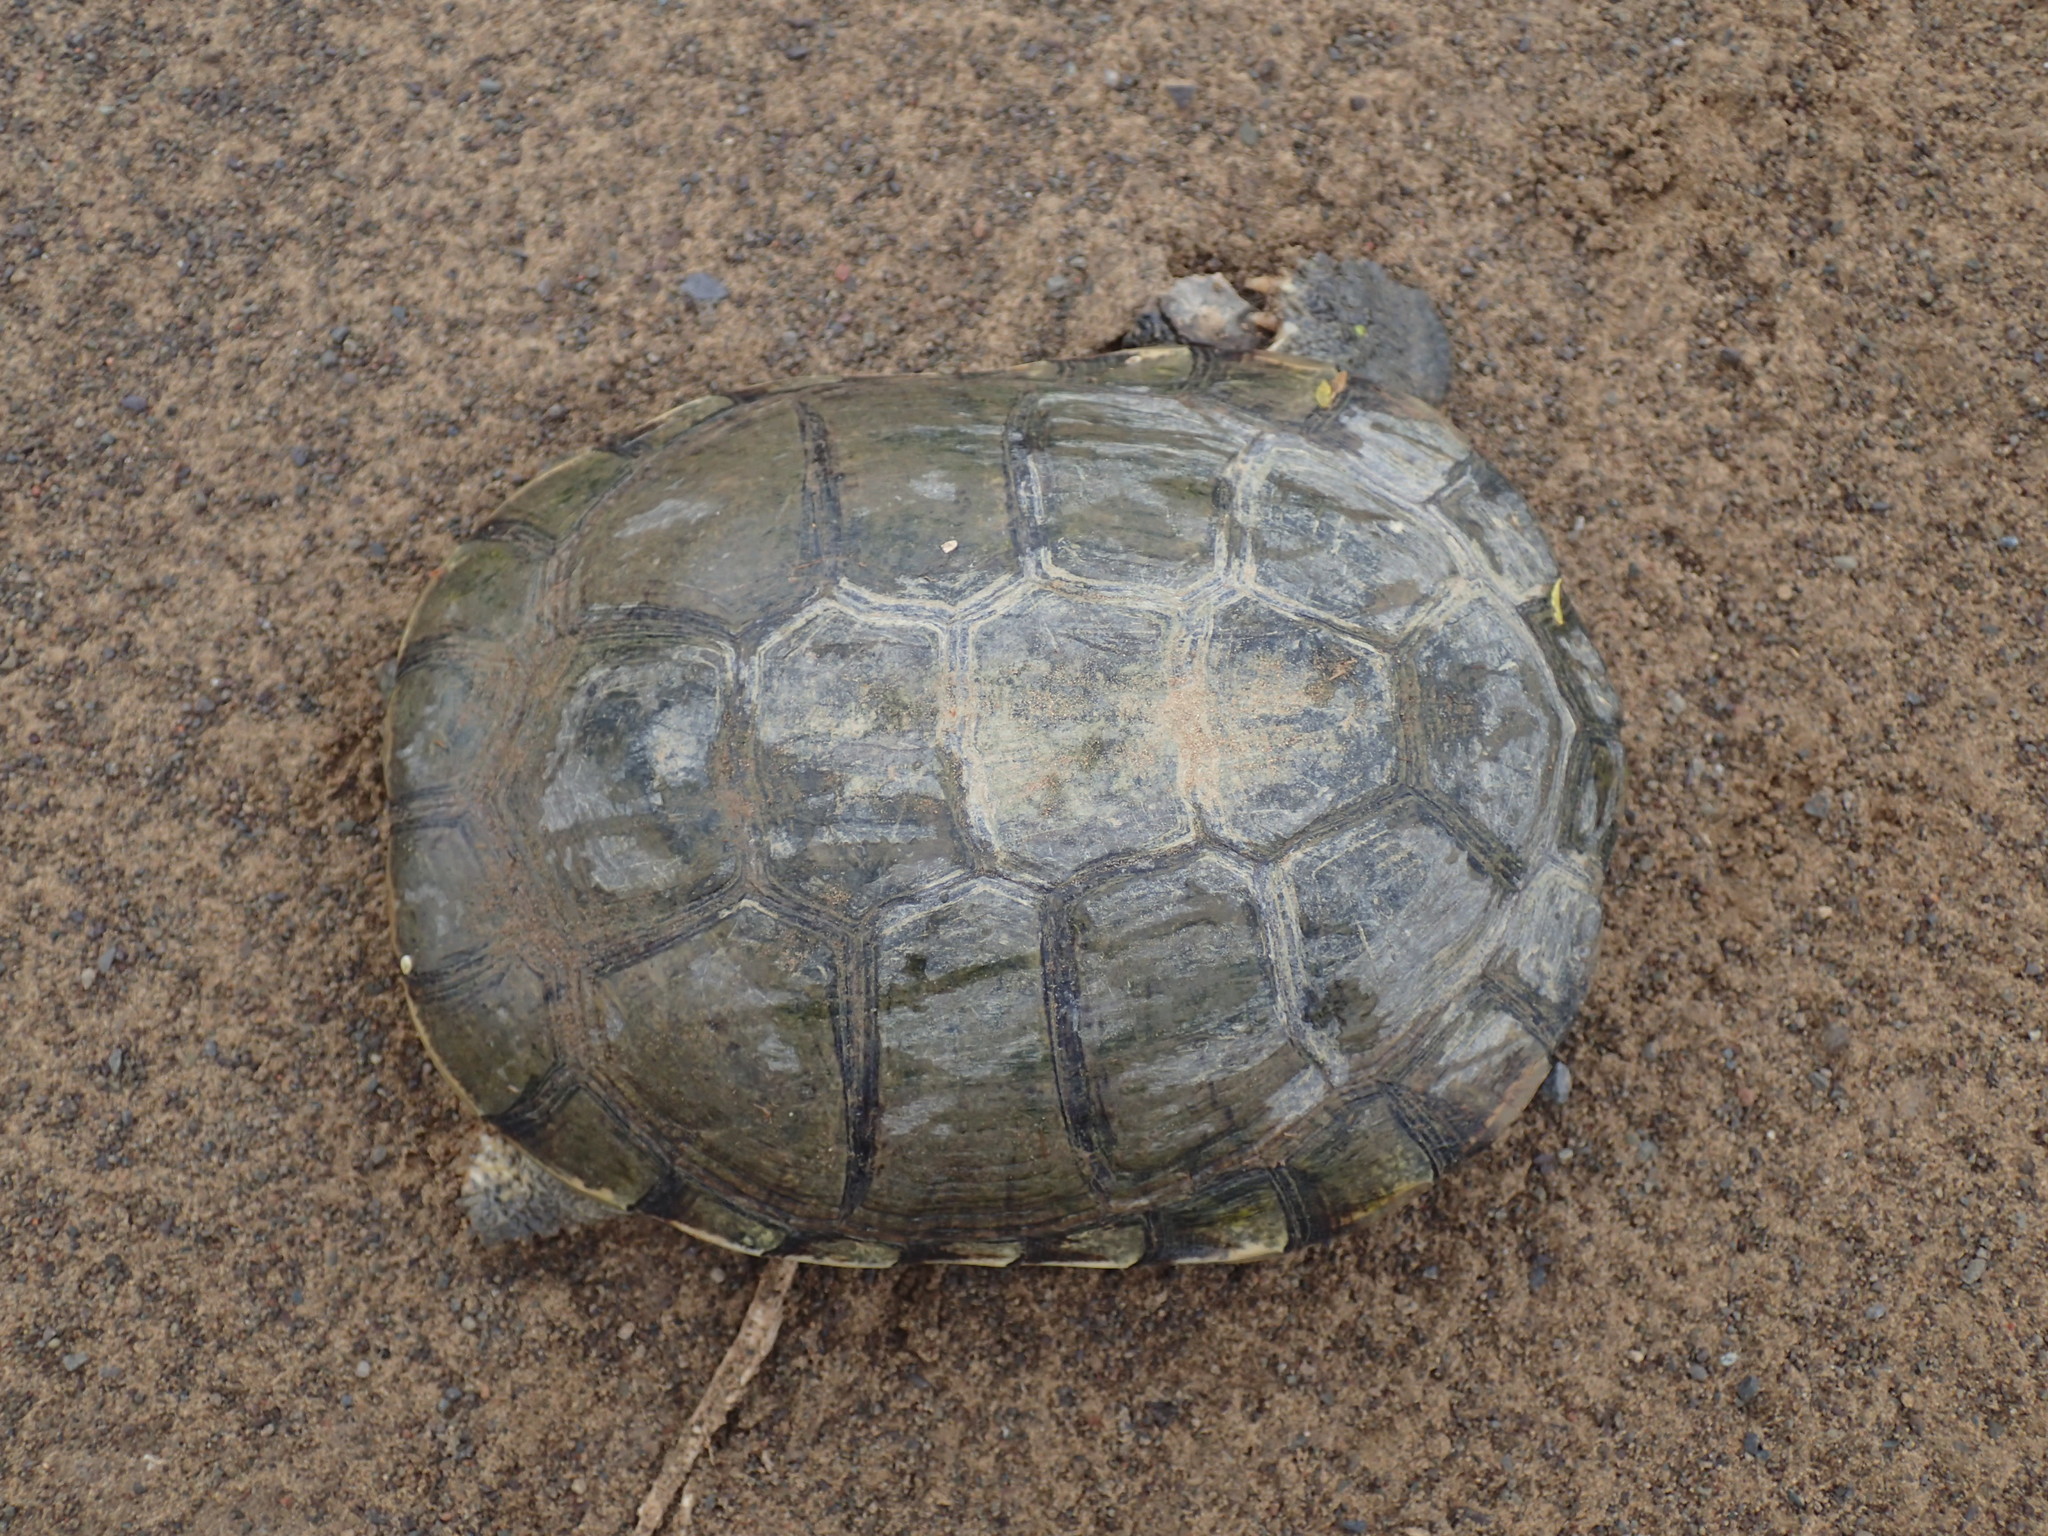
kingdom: Animalia
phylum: Chordata
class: Testudines
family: Pelomedusidae
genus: Pelomedusa
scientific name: Pelomedusa galeata
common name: South african helmeted terrapin
